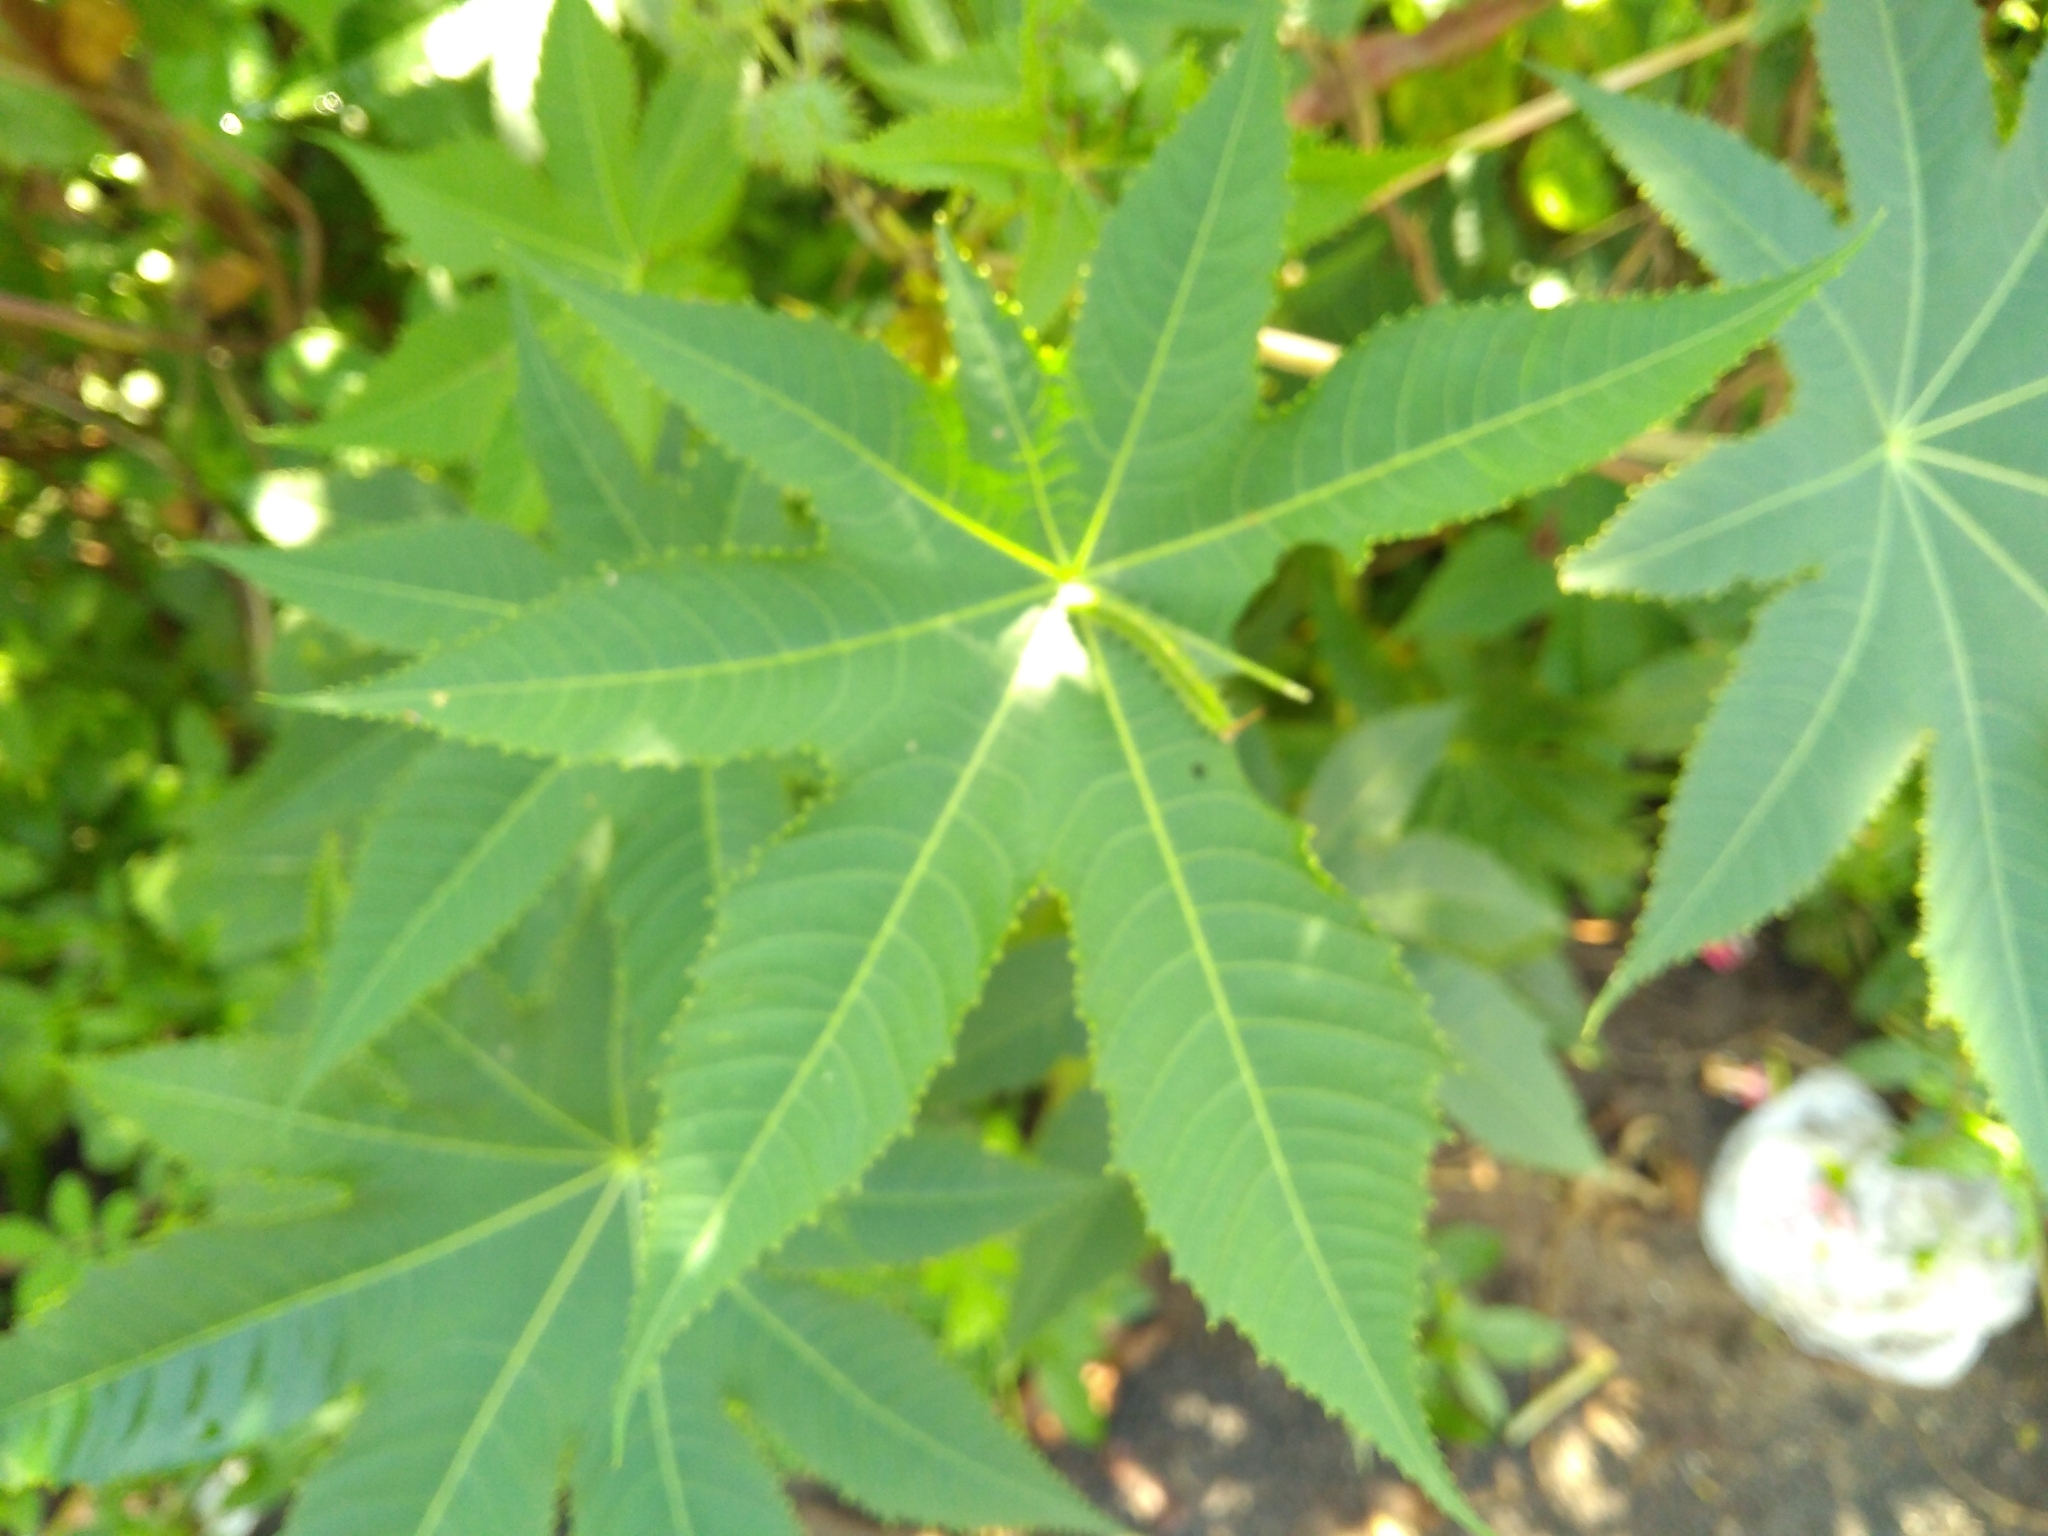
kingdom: Plantae
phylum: Tracheophyta
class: Magnoliopsida
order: Malpighiales
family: Euphorbiaceae
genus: Ricinus
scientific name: Ricinus communis
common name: Castor-oil-plant
